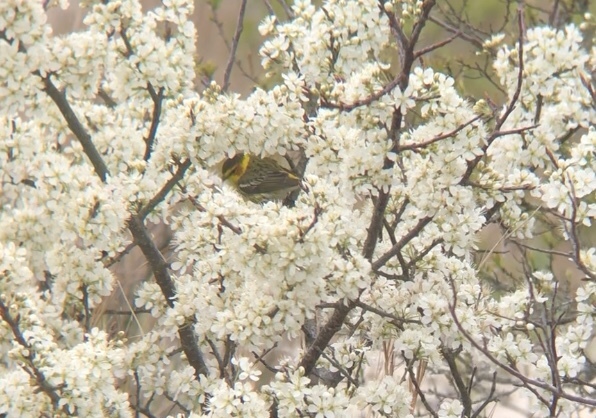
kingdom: Plantae
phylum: Tracheophyta
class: Magnoliopsida
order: Rosales
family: Rosaceae
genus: Prunus
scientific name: Prunus maritima
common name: Beach plum
